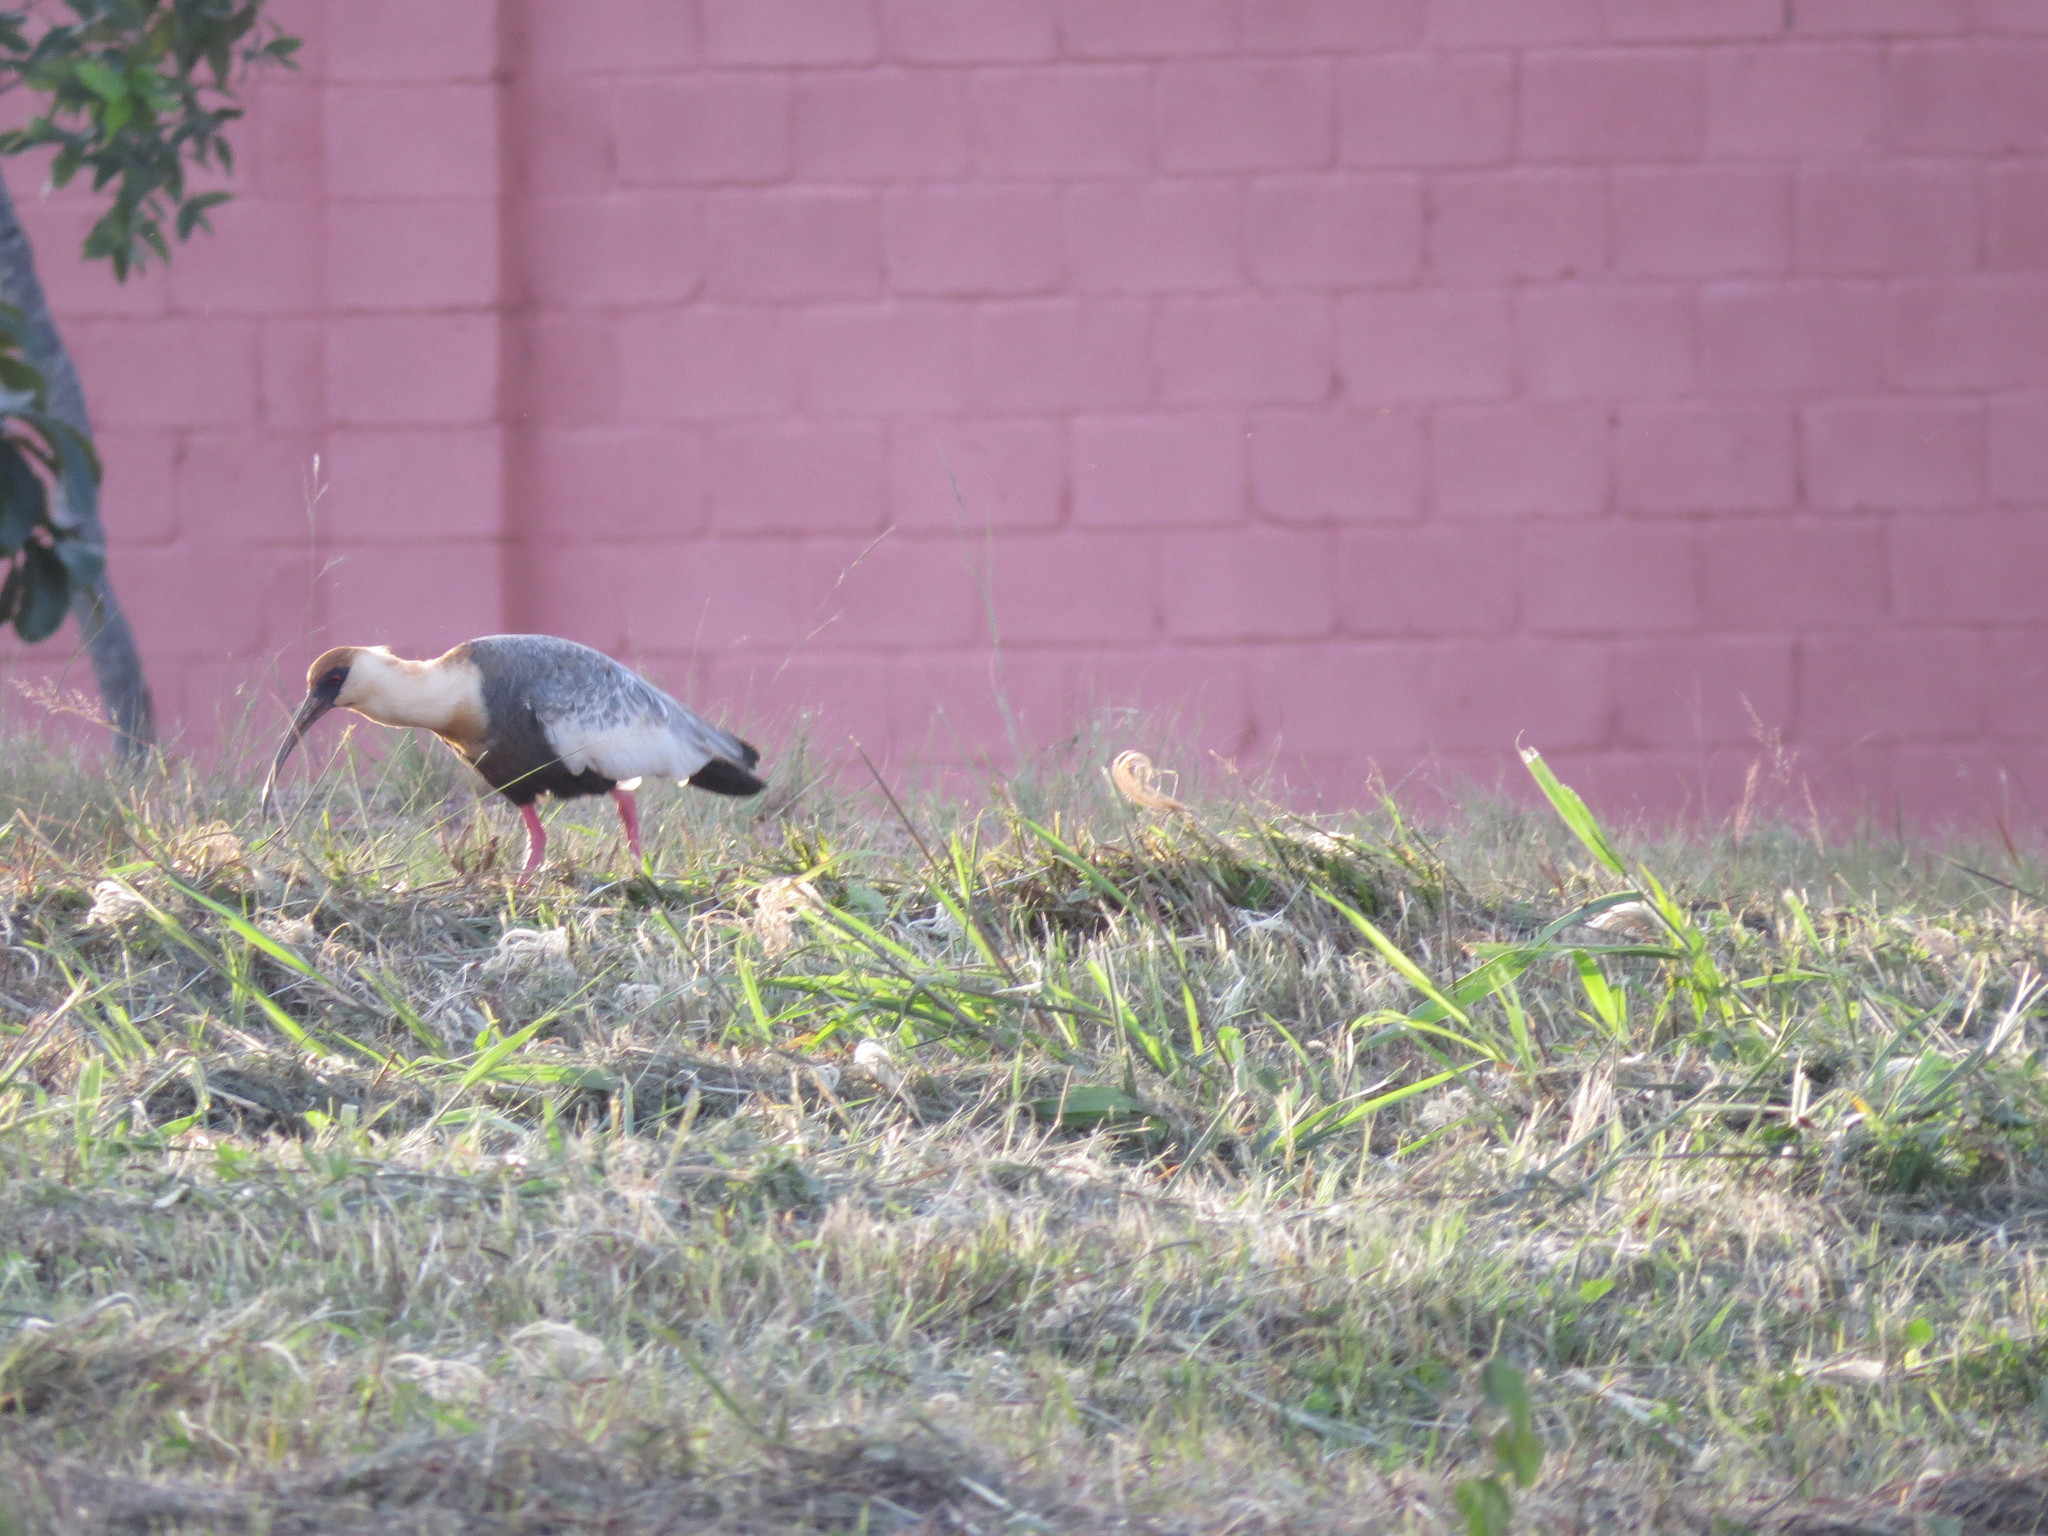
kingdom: Animalia
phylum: Chordata
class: Aves
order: Pelecaniformes
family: Threskiornithidae
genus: Theristicus
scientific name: Theristicus caudatus
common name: Buff-necked ibis
